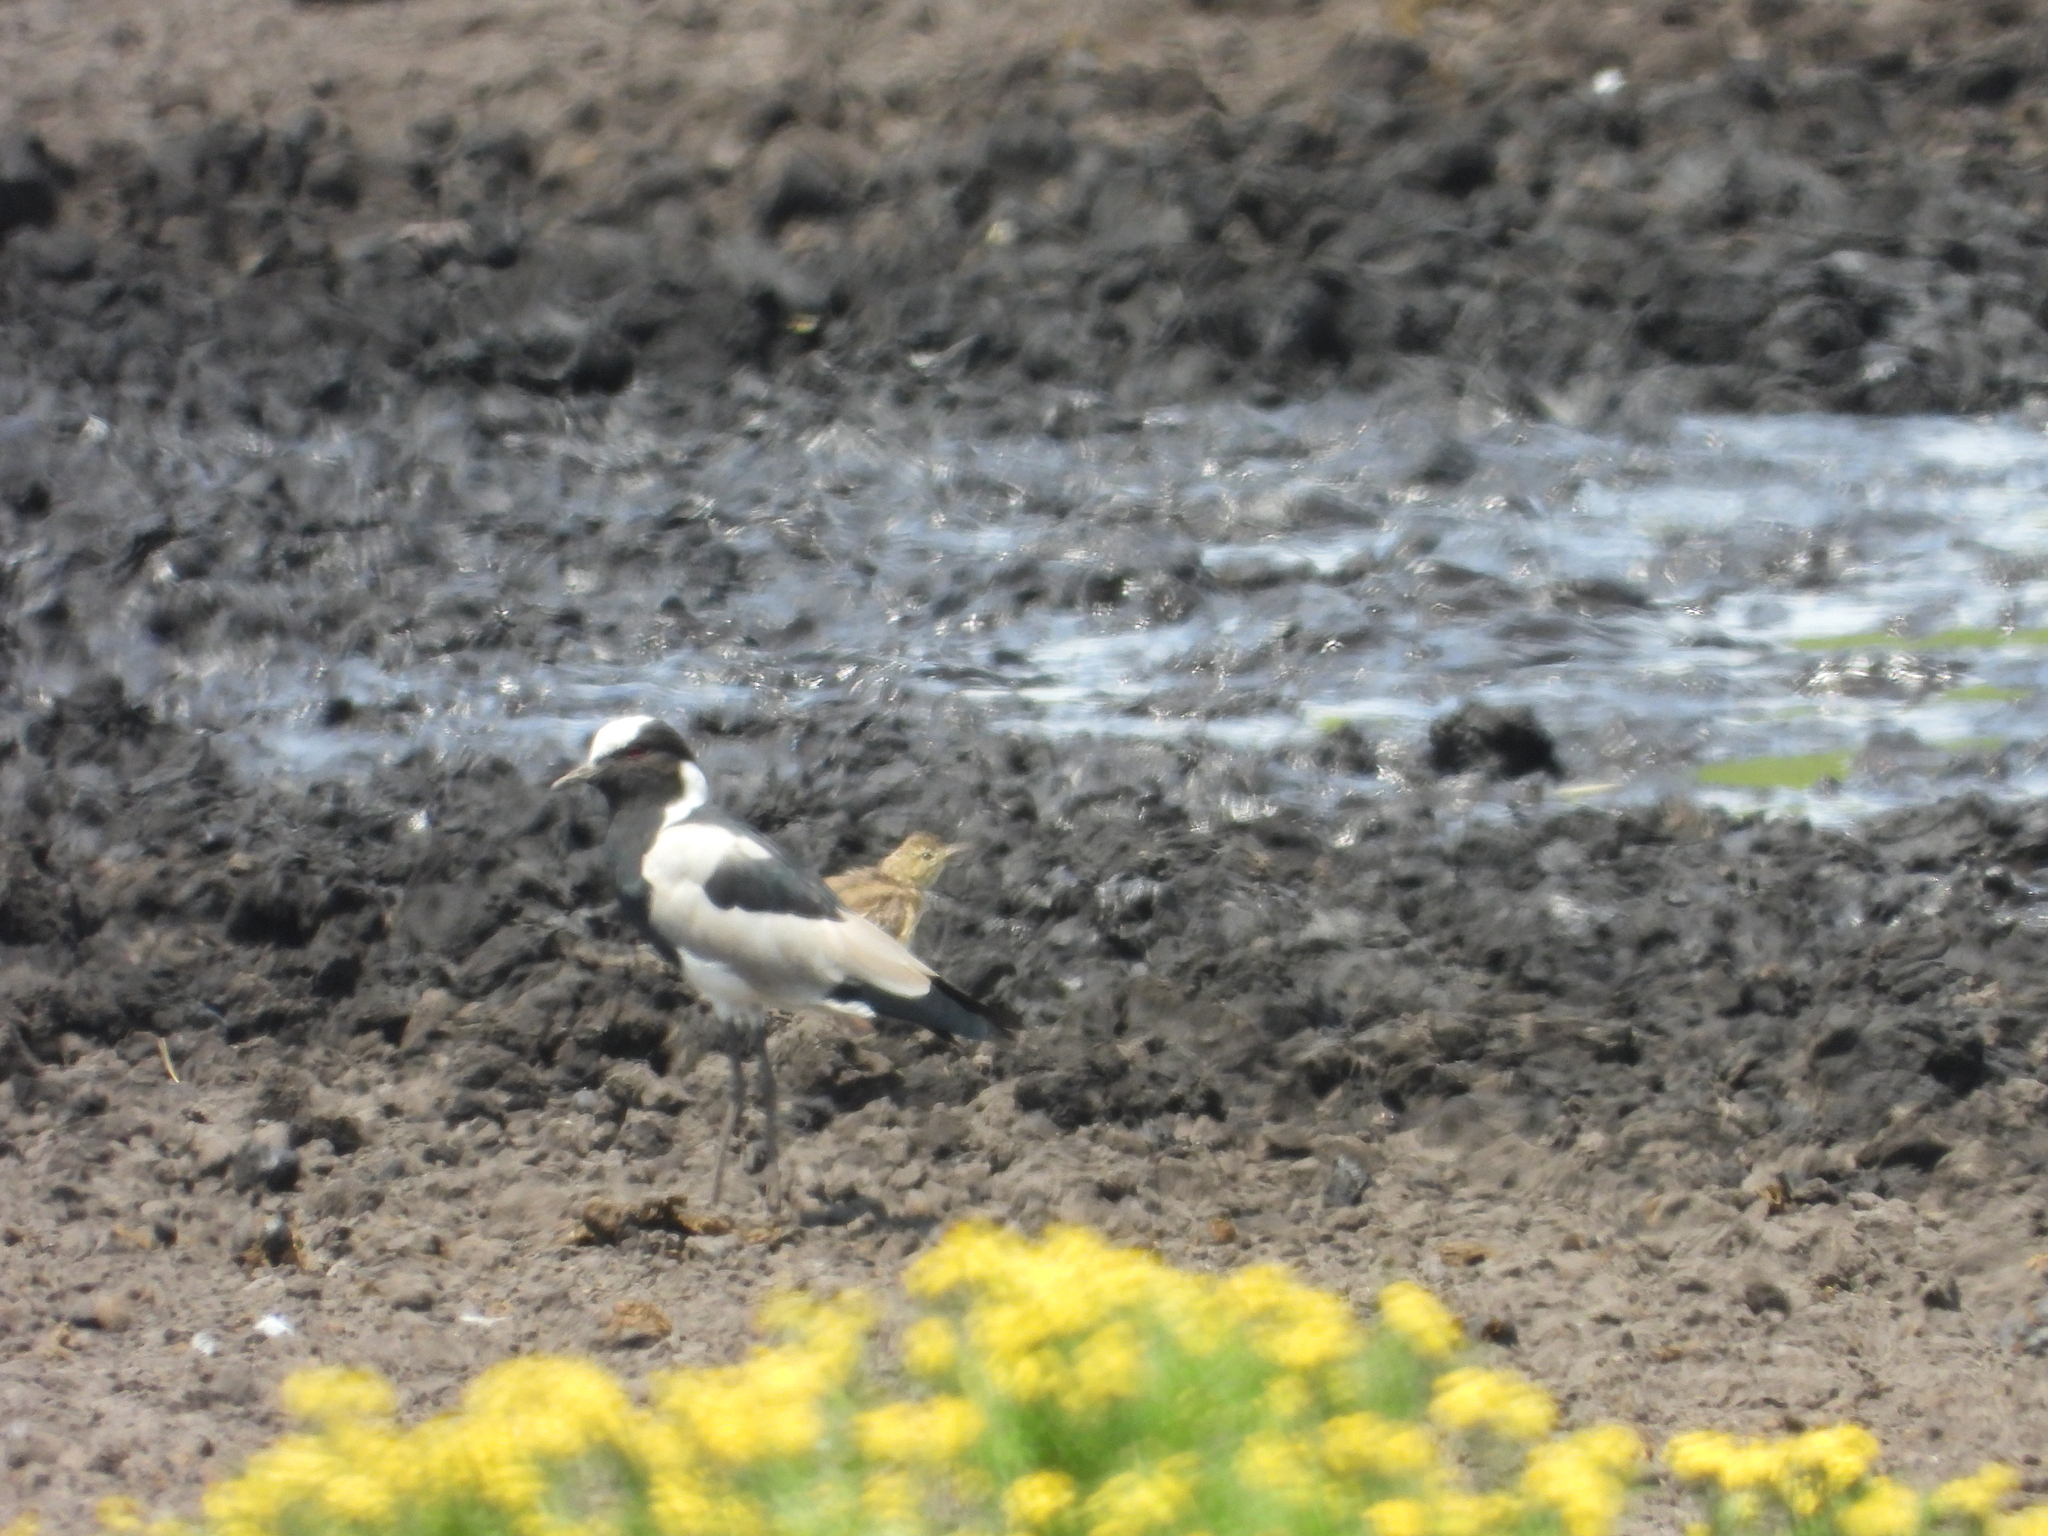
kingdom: Animalia
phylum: Chordata
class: Aves
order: Charadriiformes
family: Charadriidae
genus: Vanellus
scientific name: Vanellus armatus
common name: Blacksmith lapwing
